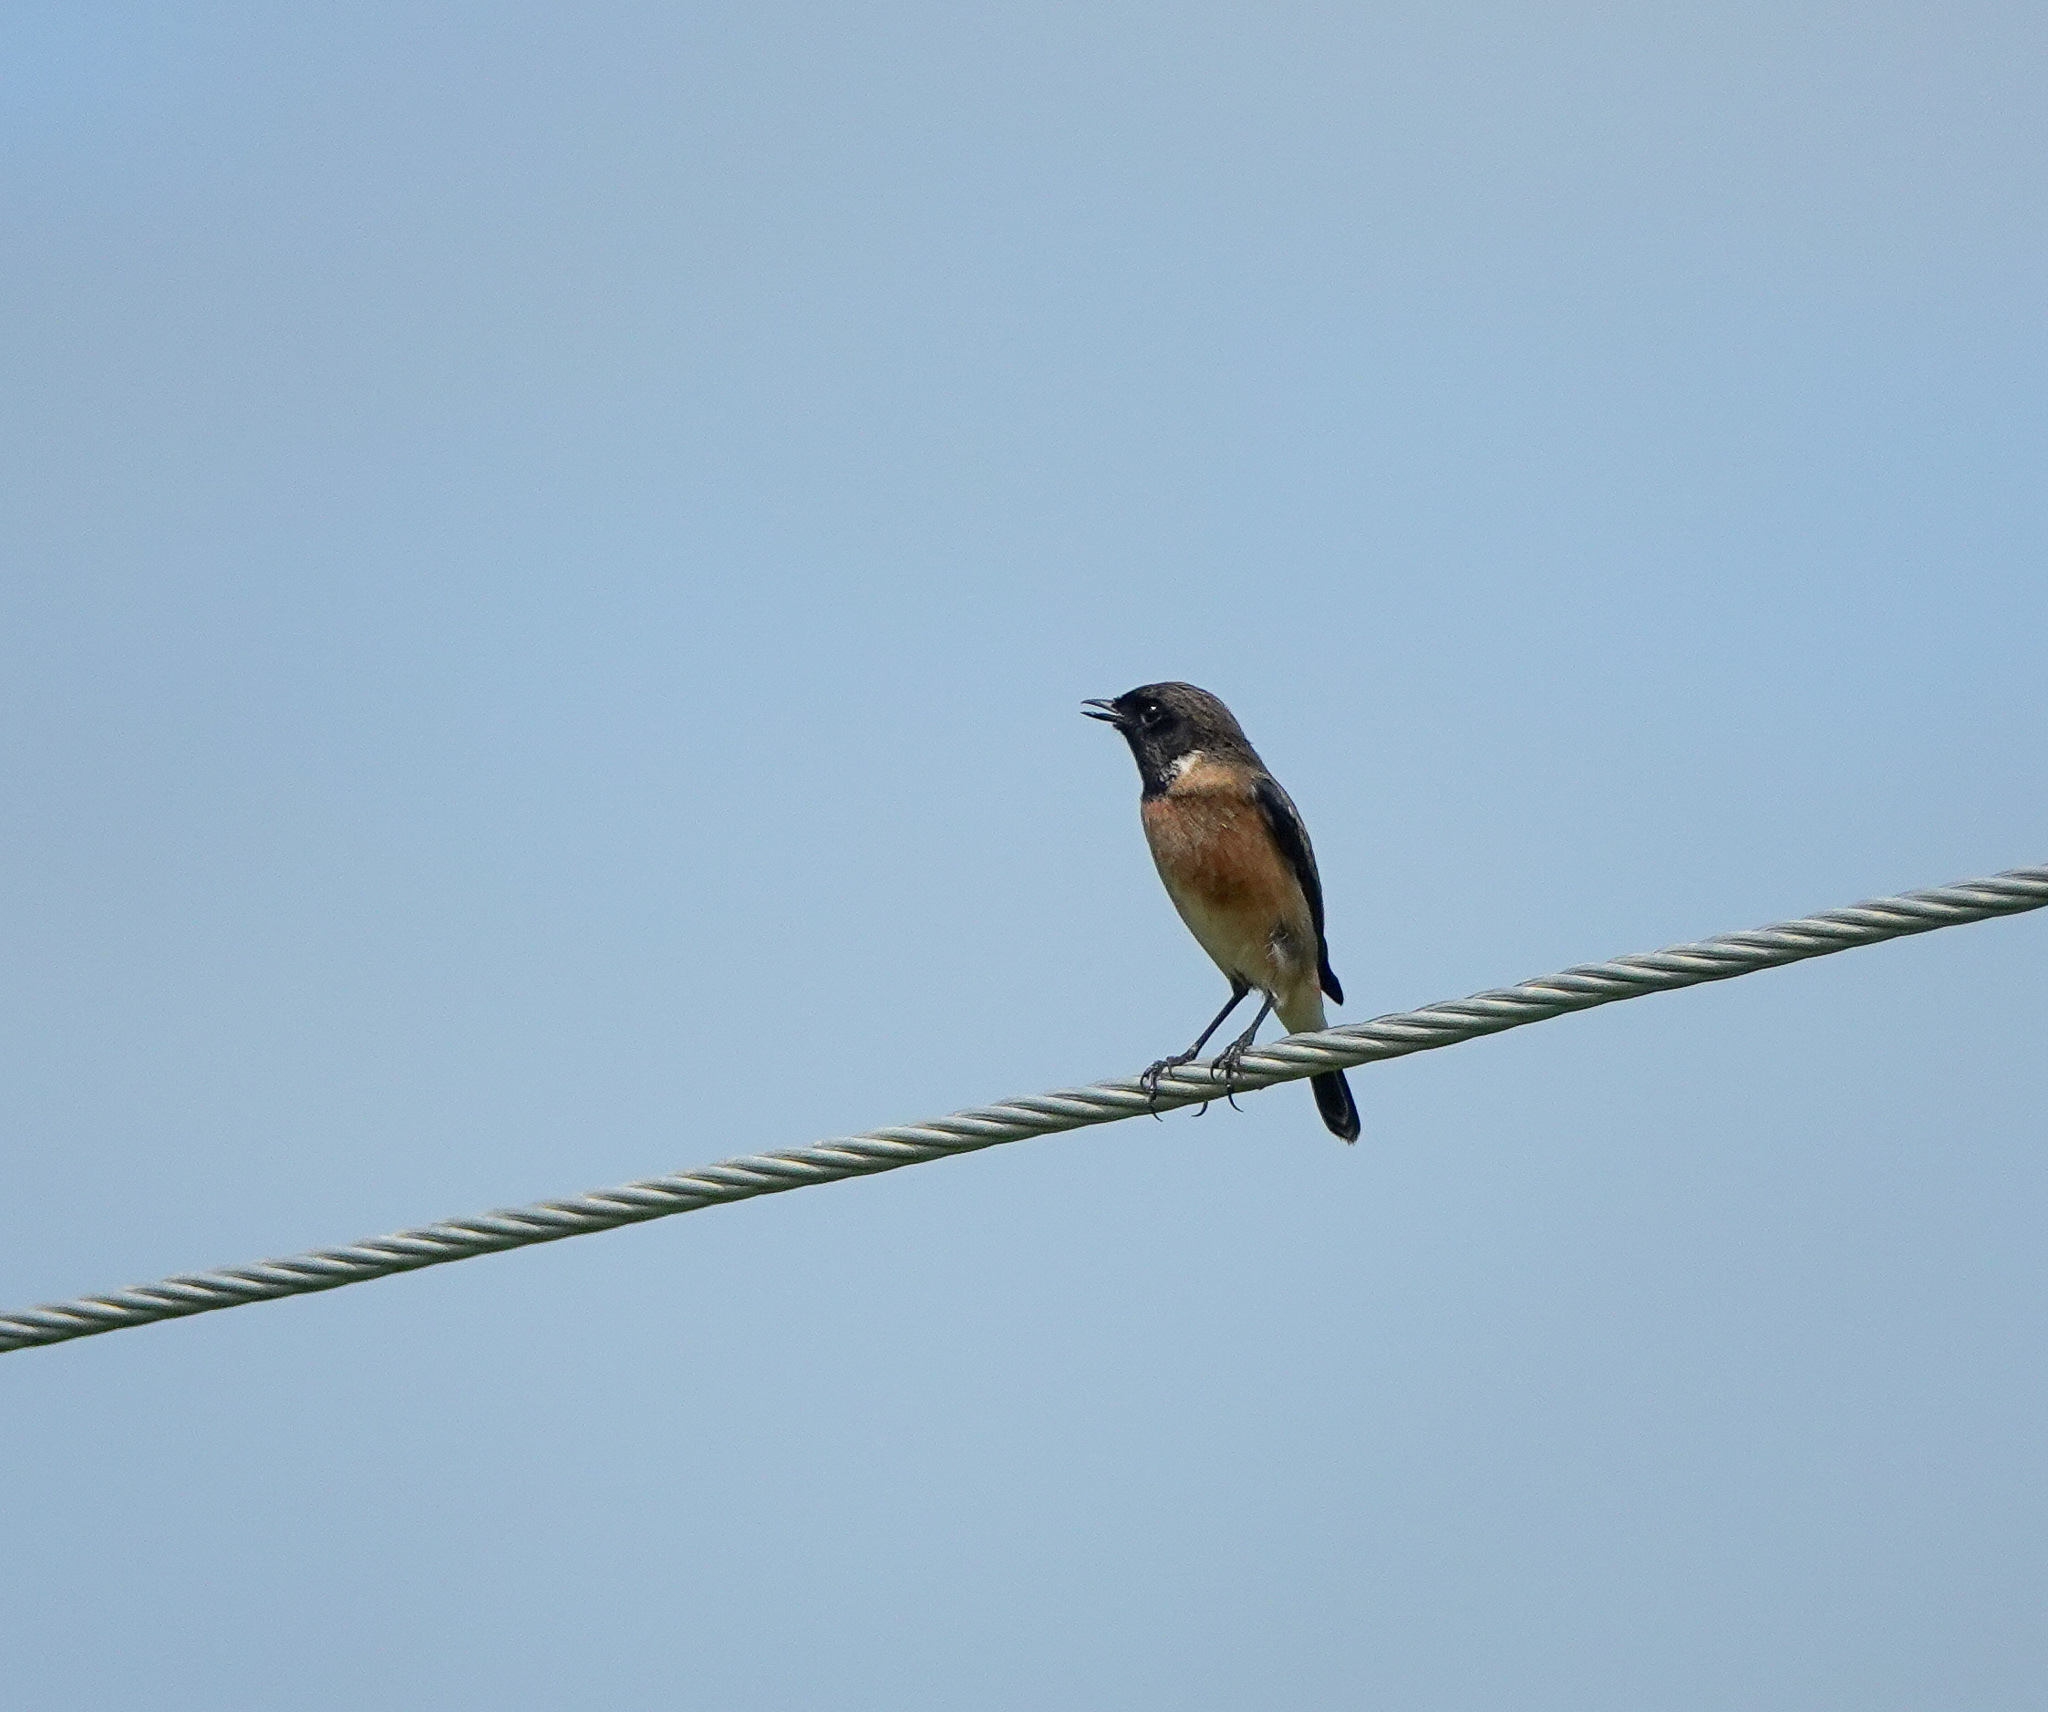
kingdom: Animalia
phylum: Chordata
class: Aves
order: Passeriformes
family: Muscicapidae
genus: Saxicola
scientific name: Saxicola maurus
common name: Siberian stonechat
